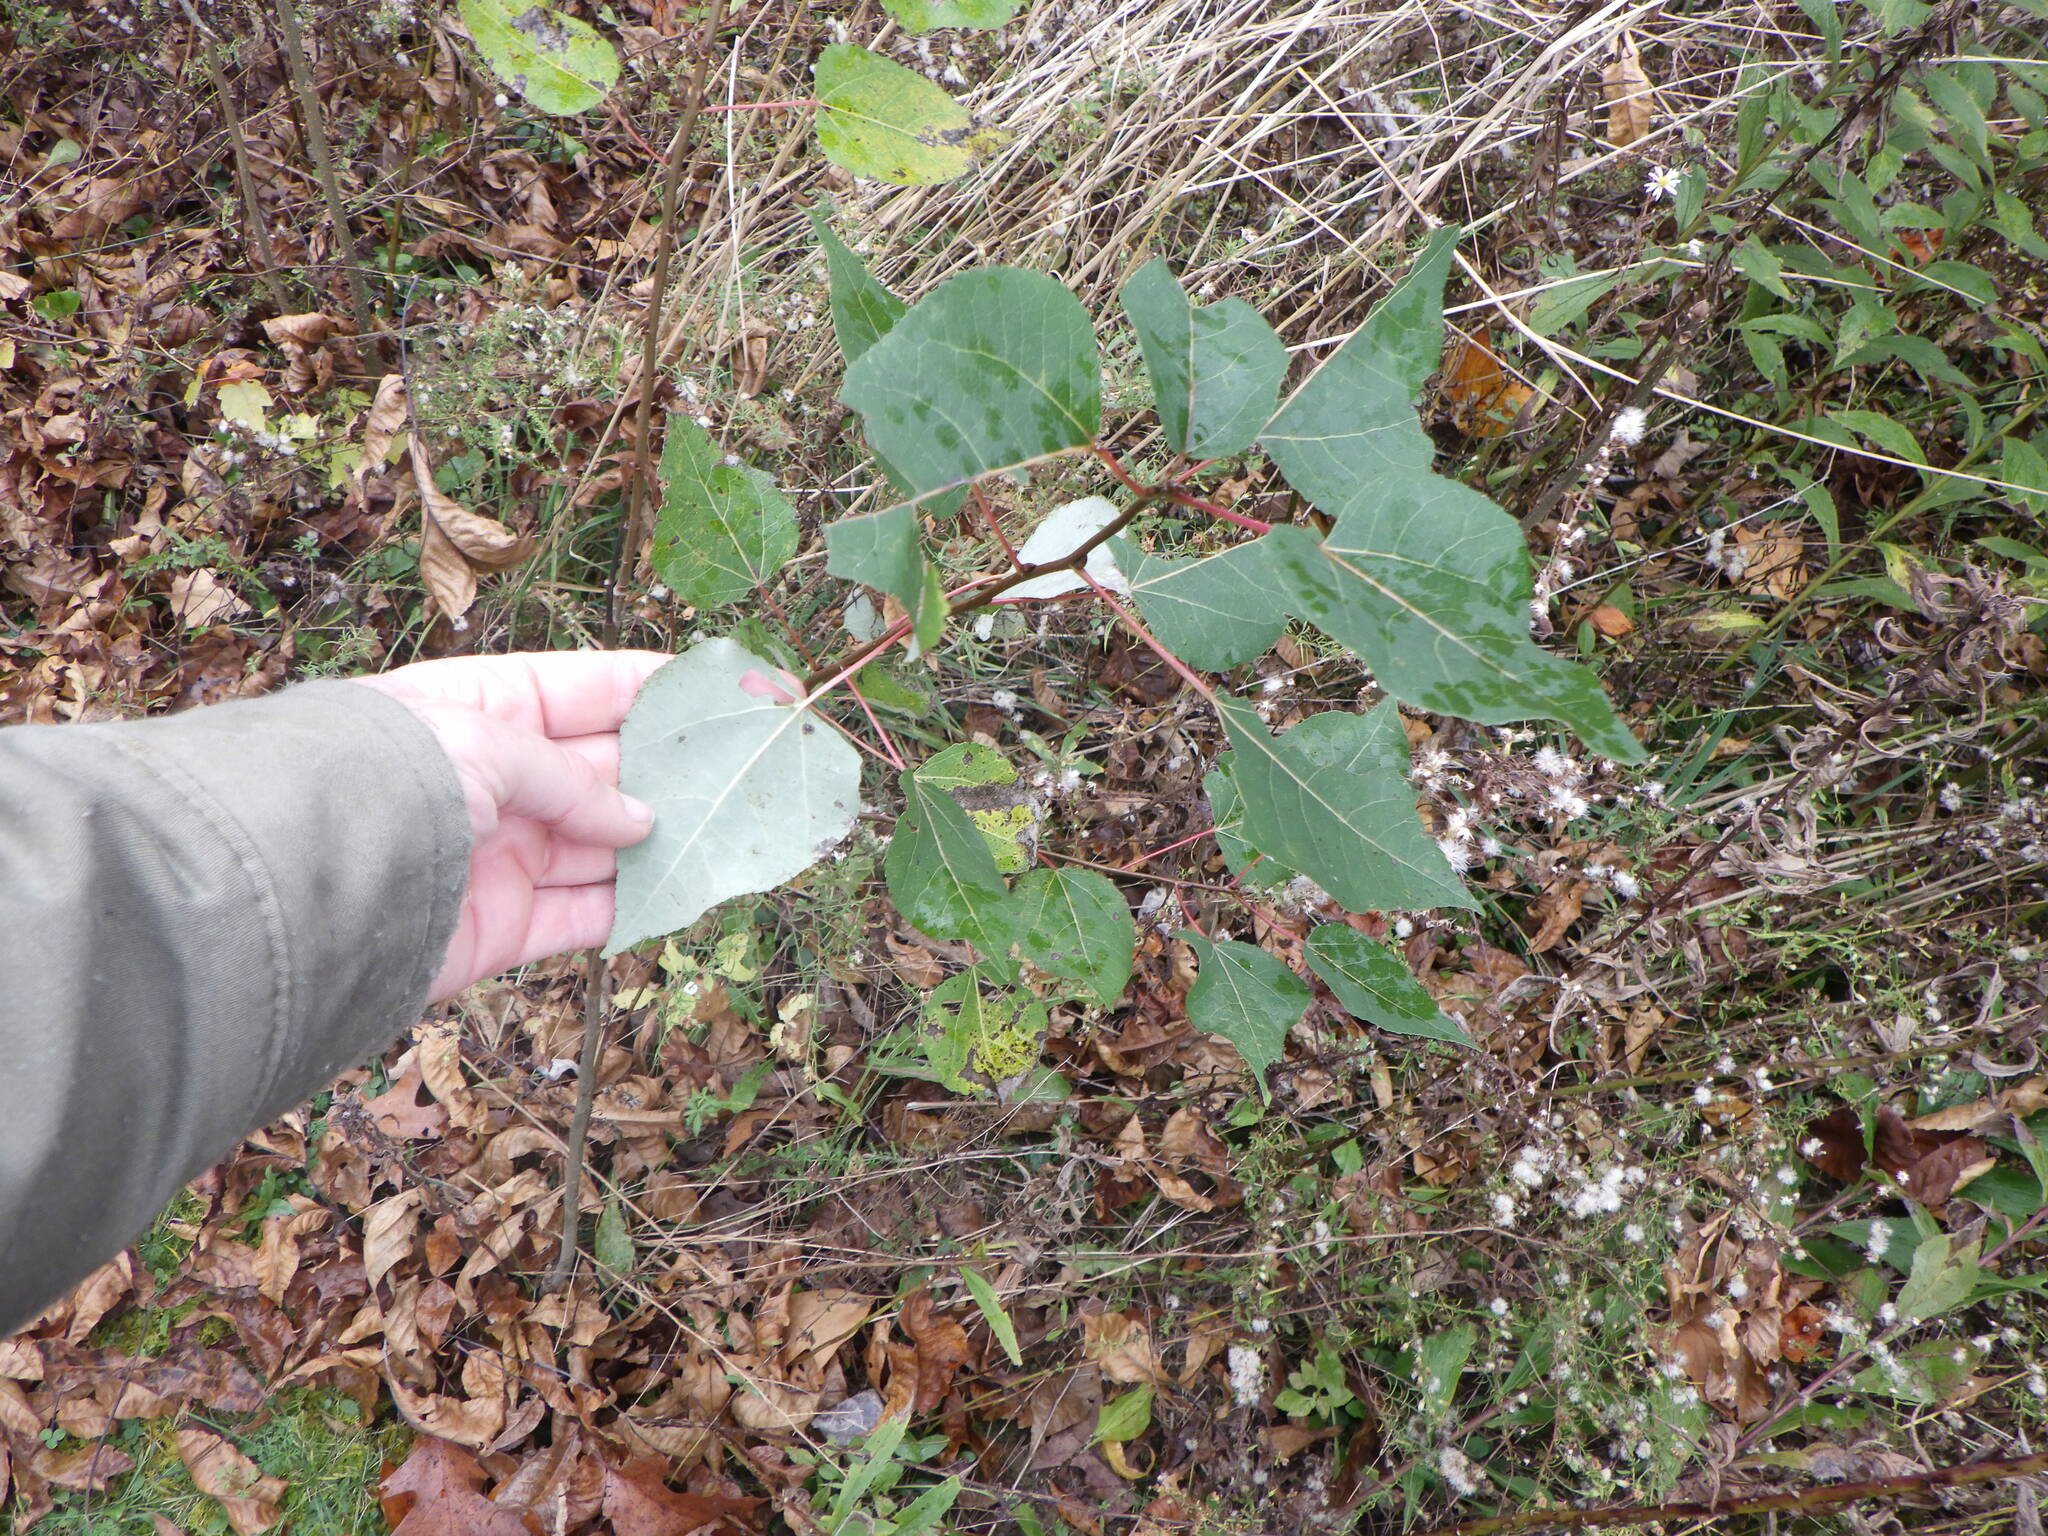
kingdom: Plantae
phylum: Tracheophyta
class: Magnoliopsida
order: Malpighiales
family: Salicaceae
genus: Populus
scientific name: Populus tremuloides
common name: Quaking aspen
